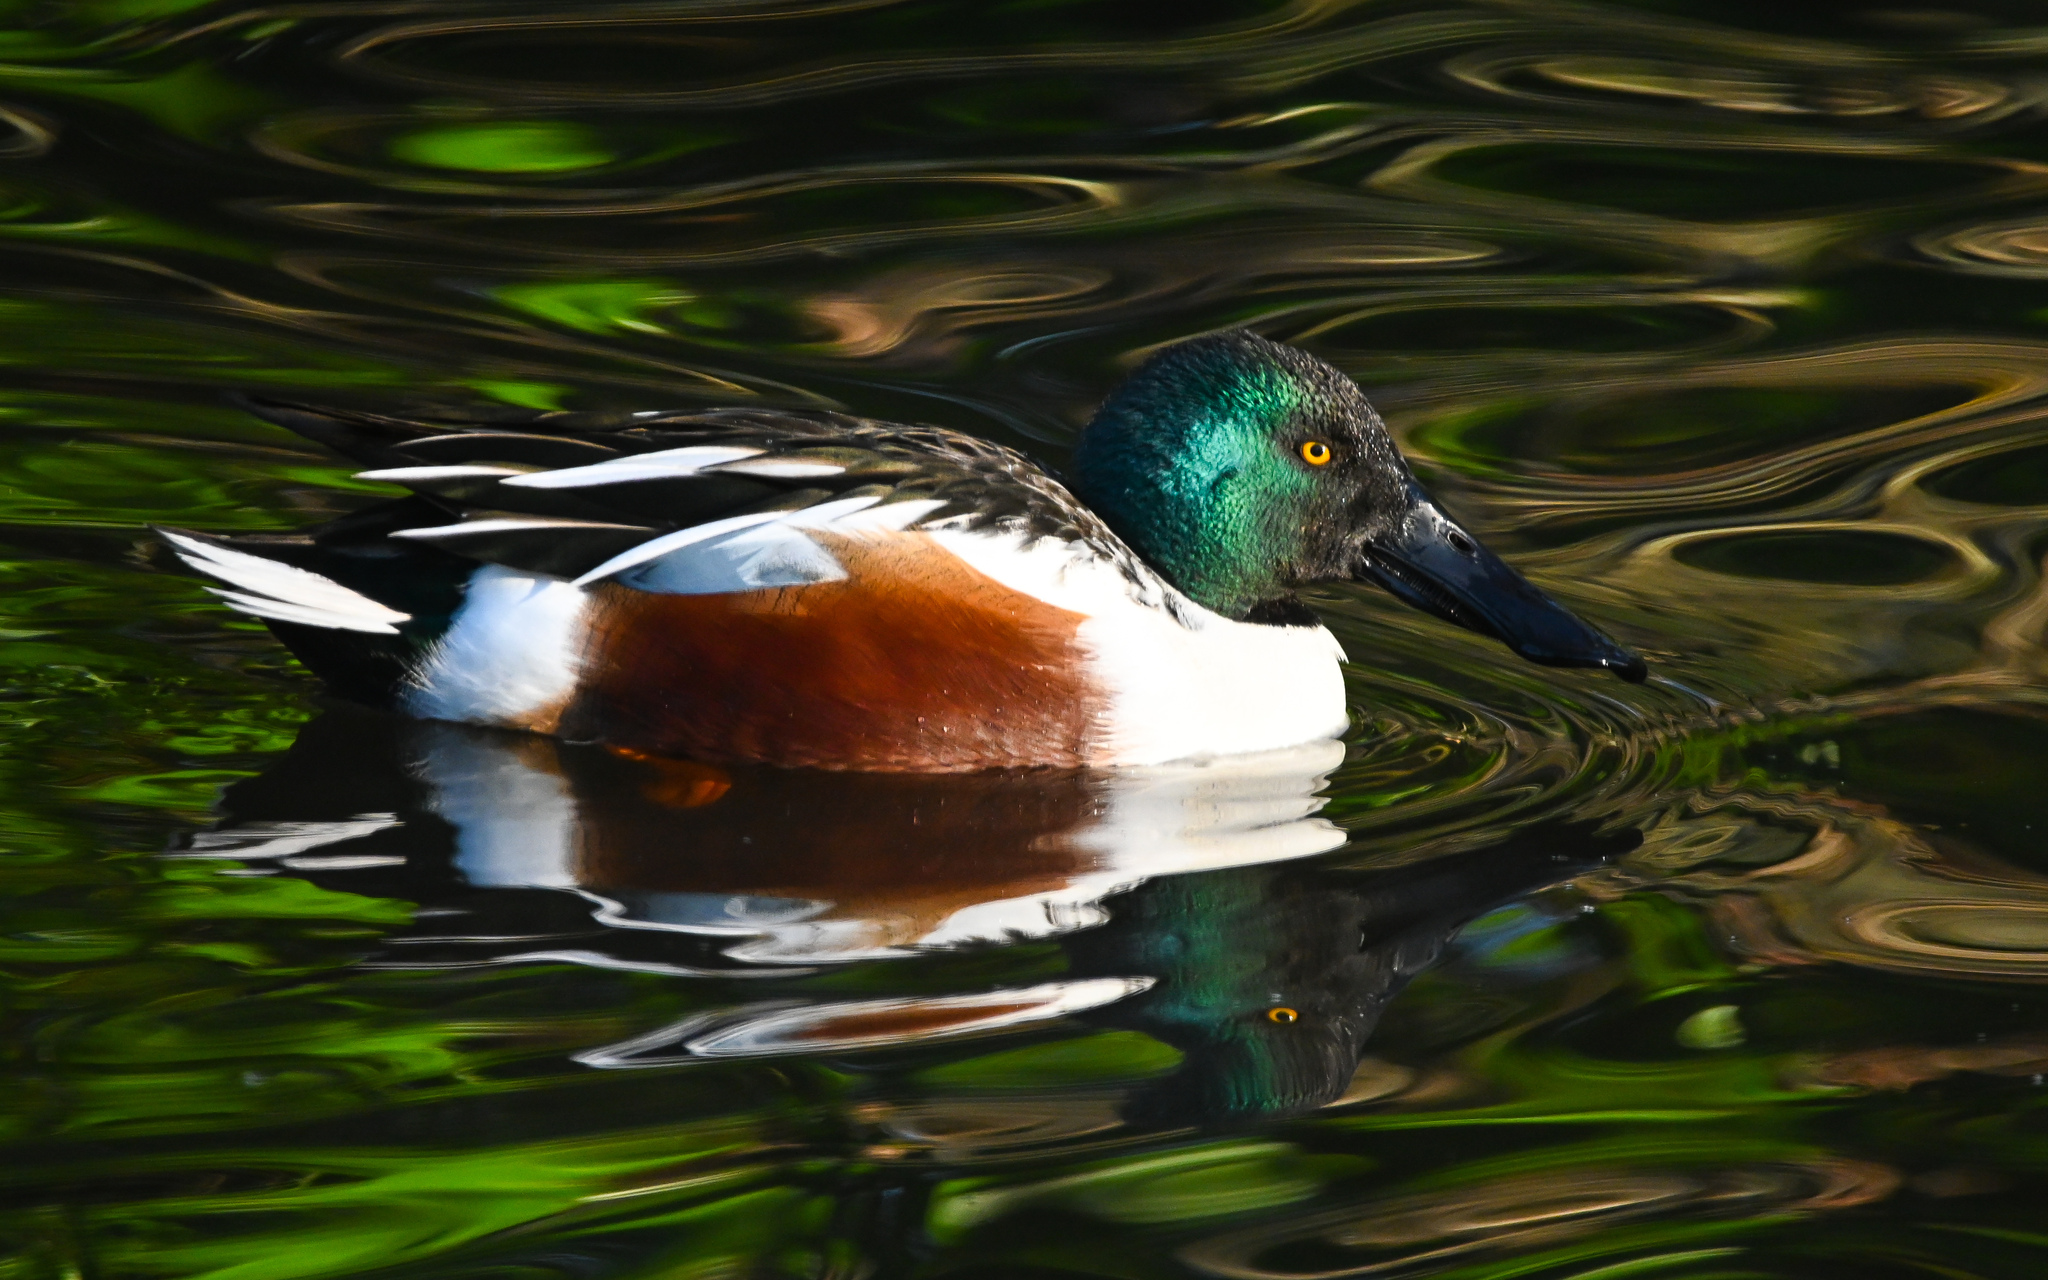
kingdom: Animalia
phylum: Chordata
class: Aves
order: Anseriformes
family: Anatidae
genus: Spatula
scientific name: Spatula clypeata
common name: Northern shoveler
